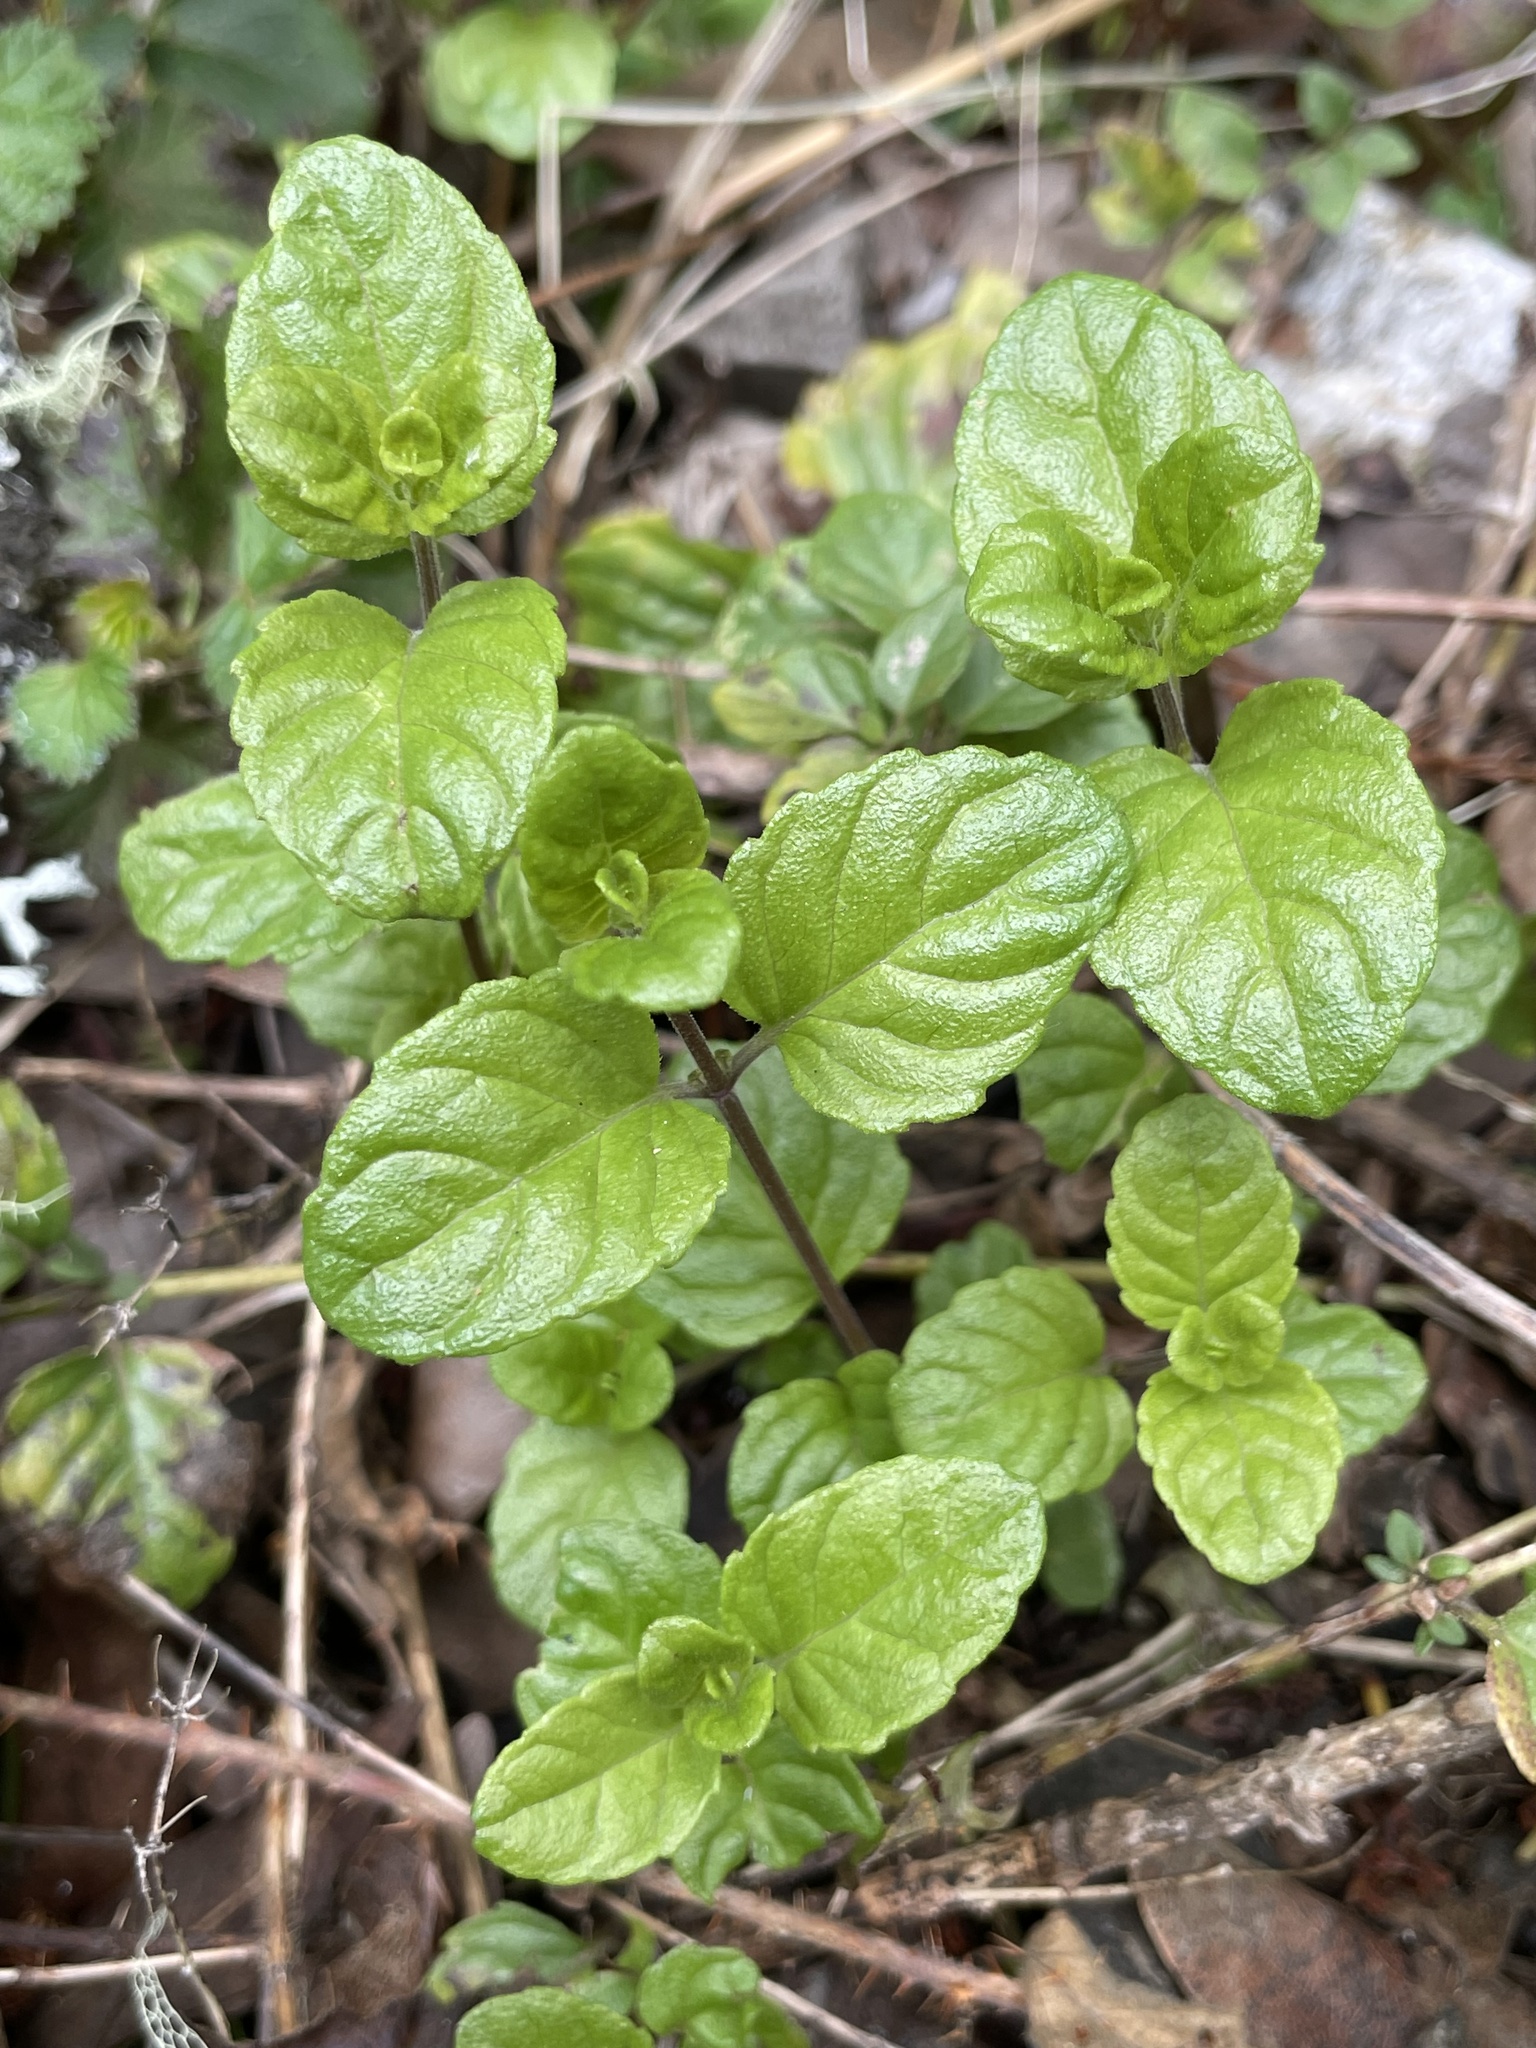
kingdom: Plantae
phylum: Tracheophyta
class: Magnoliopsida
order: Lamiales
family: Lamiaceae
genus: Micromeria
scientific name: Micromeria douglasii
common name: Yerba buena
